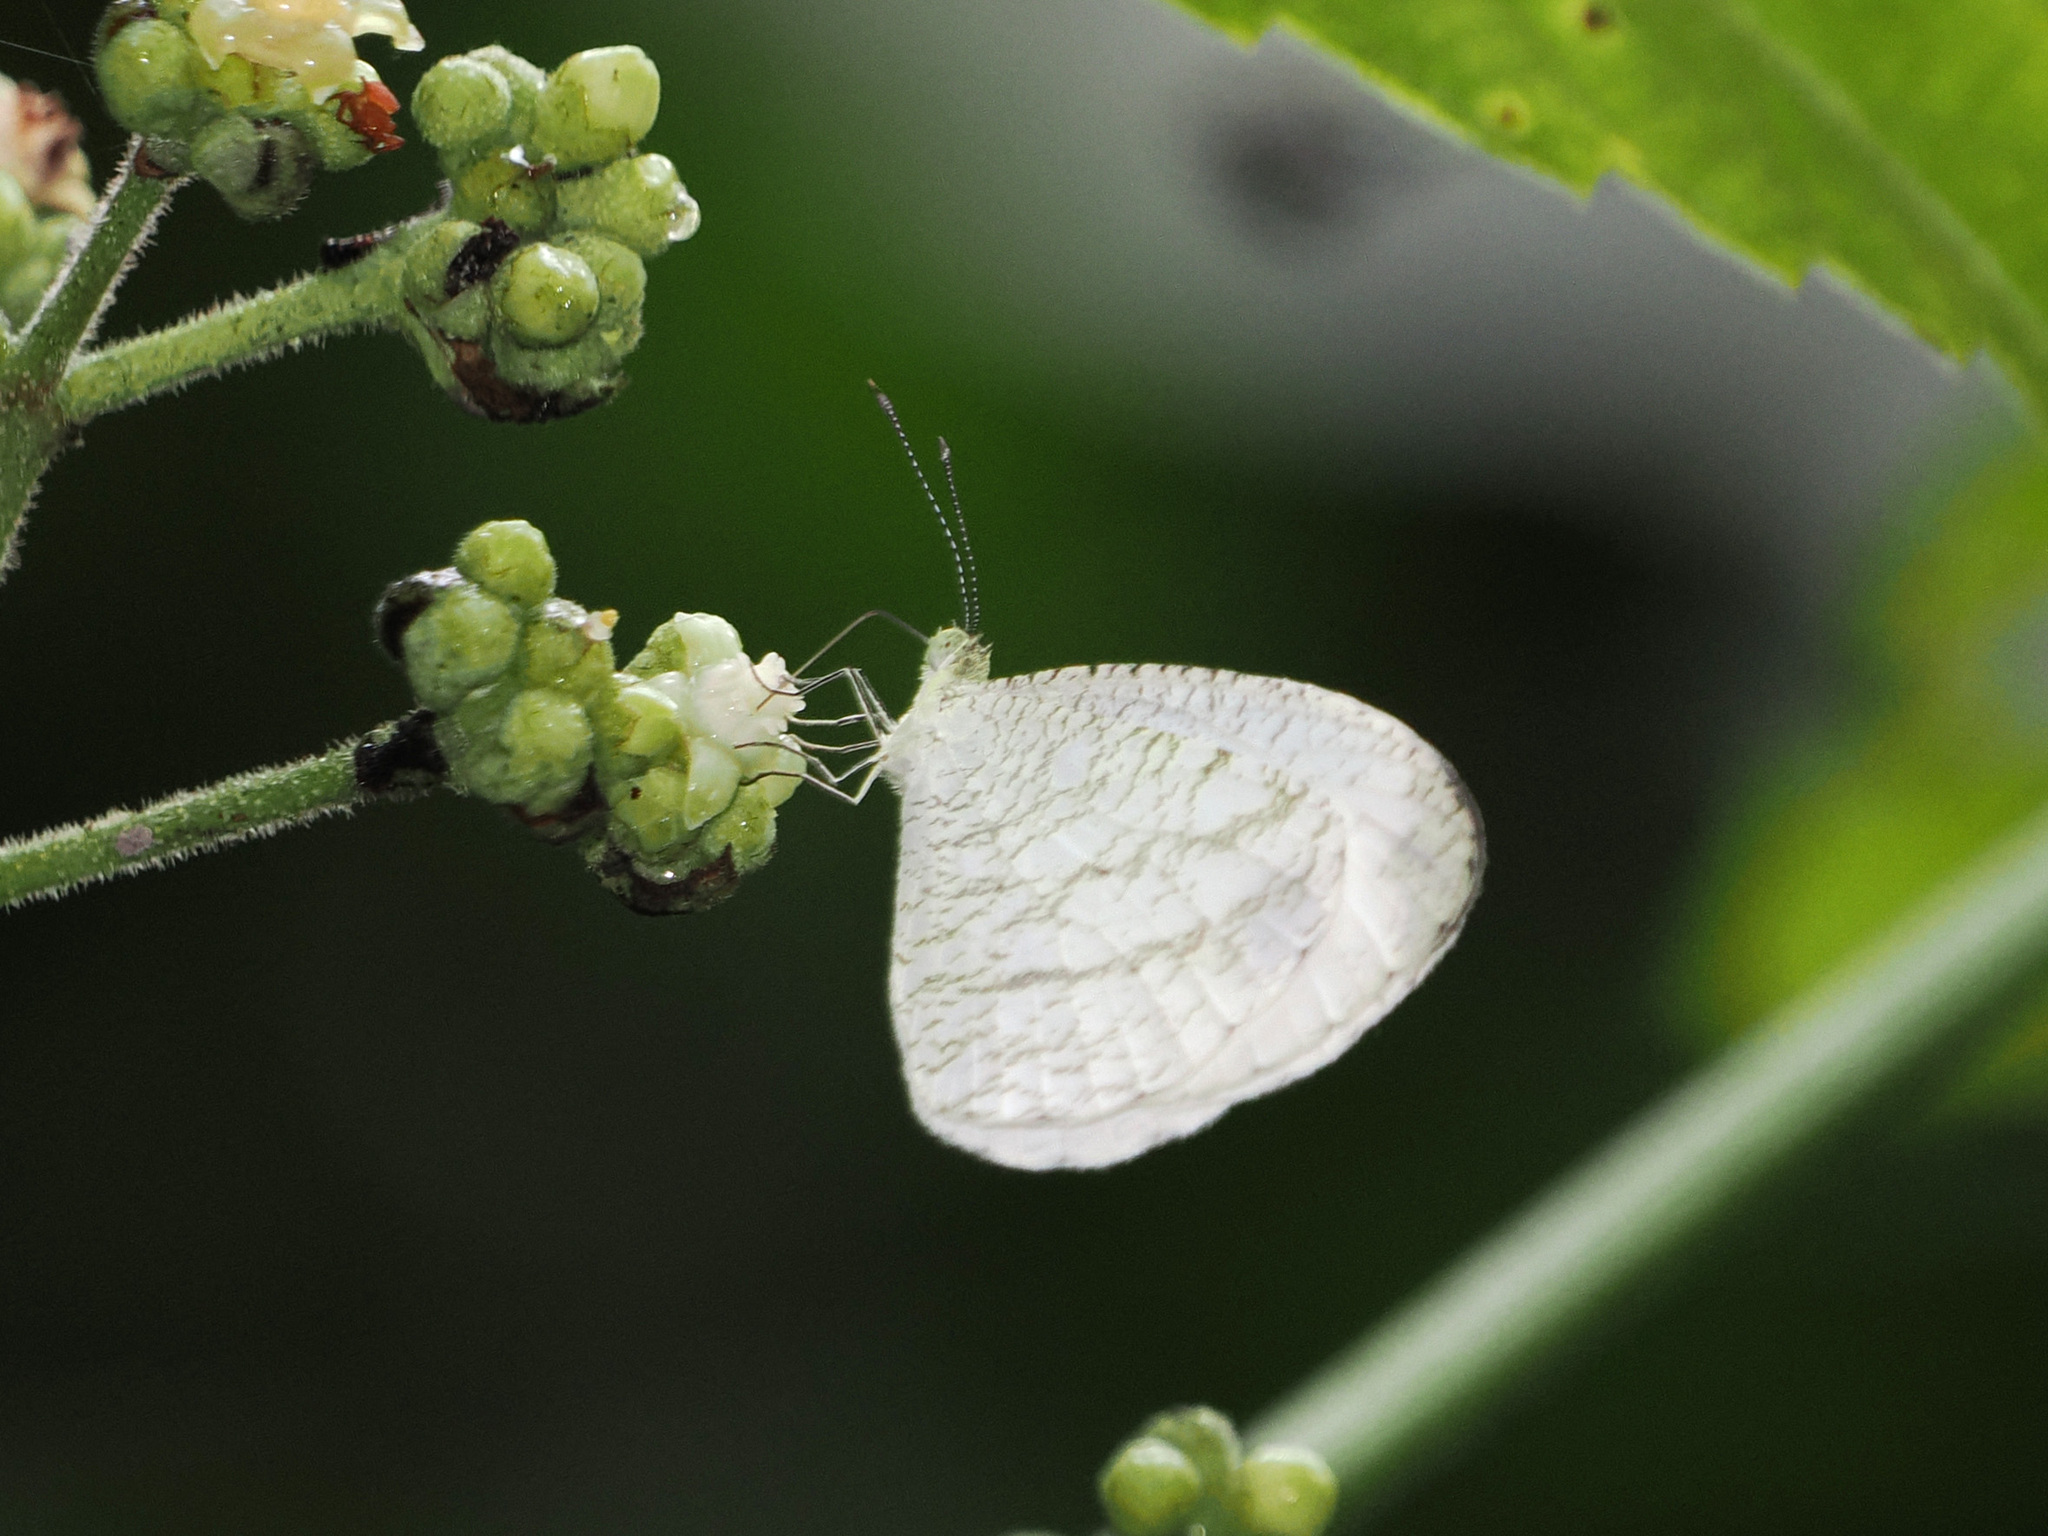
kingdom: Animalia
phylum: Arthropoda
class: Insecta
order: Lepidoptera
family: Pieridae
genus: Leptosia
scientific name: Leptosia nina
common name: Psyche
